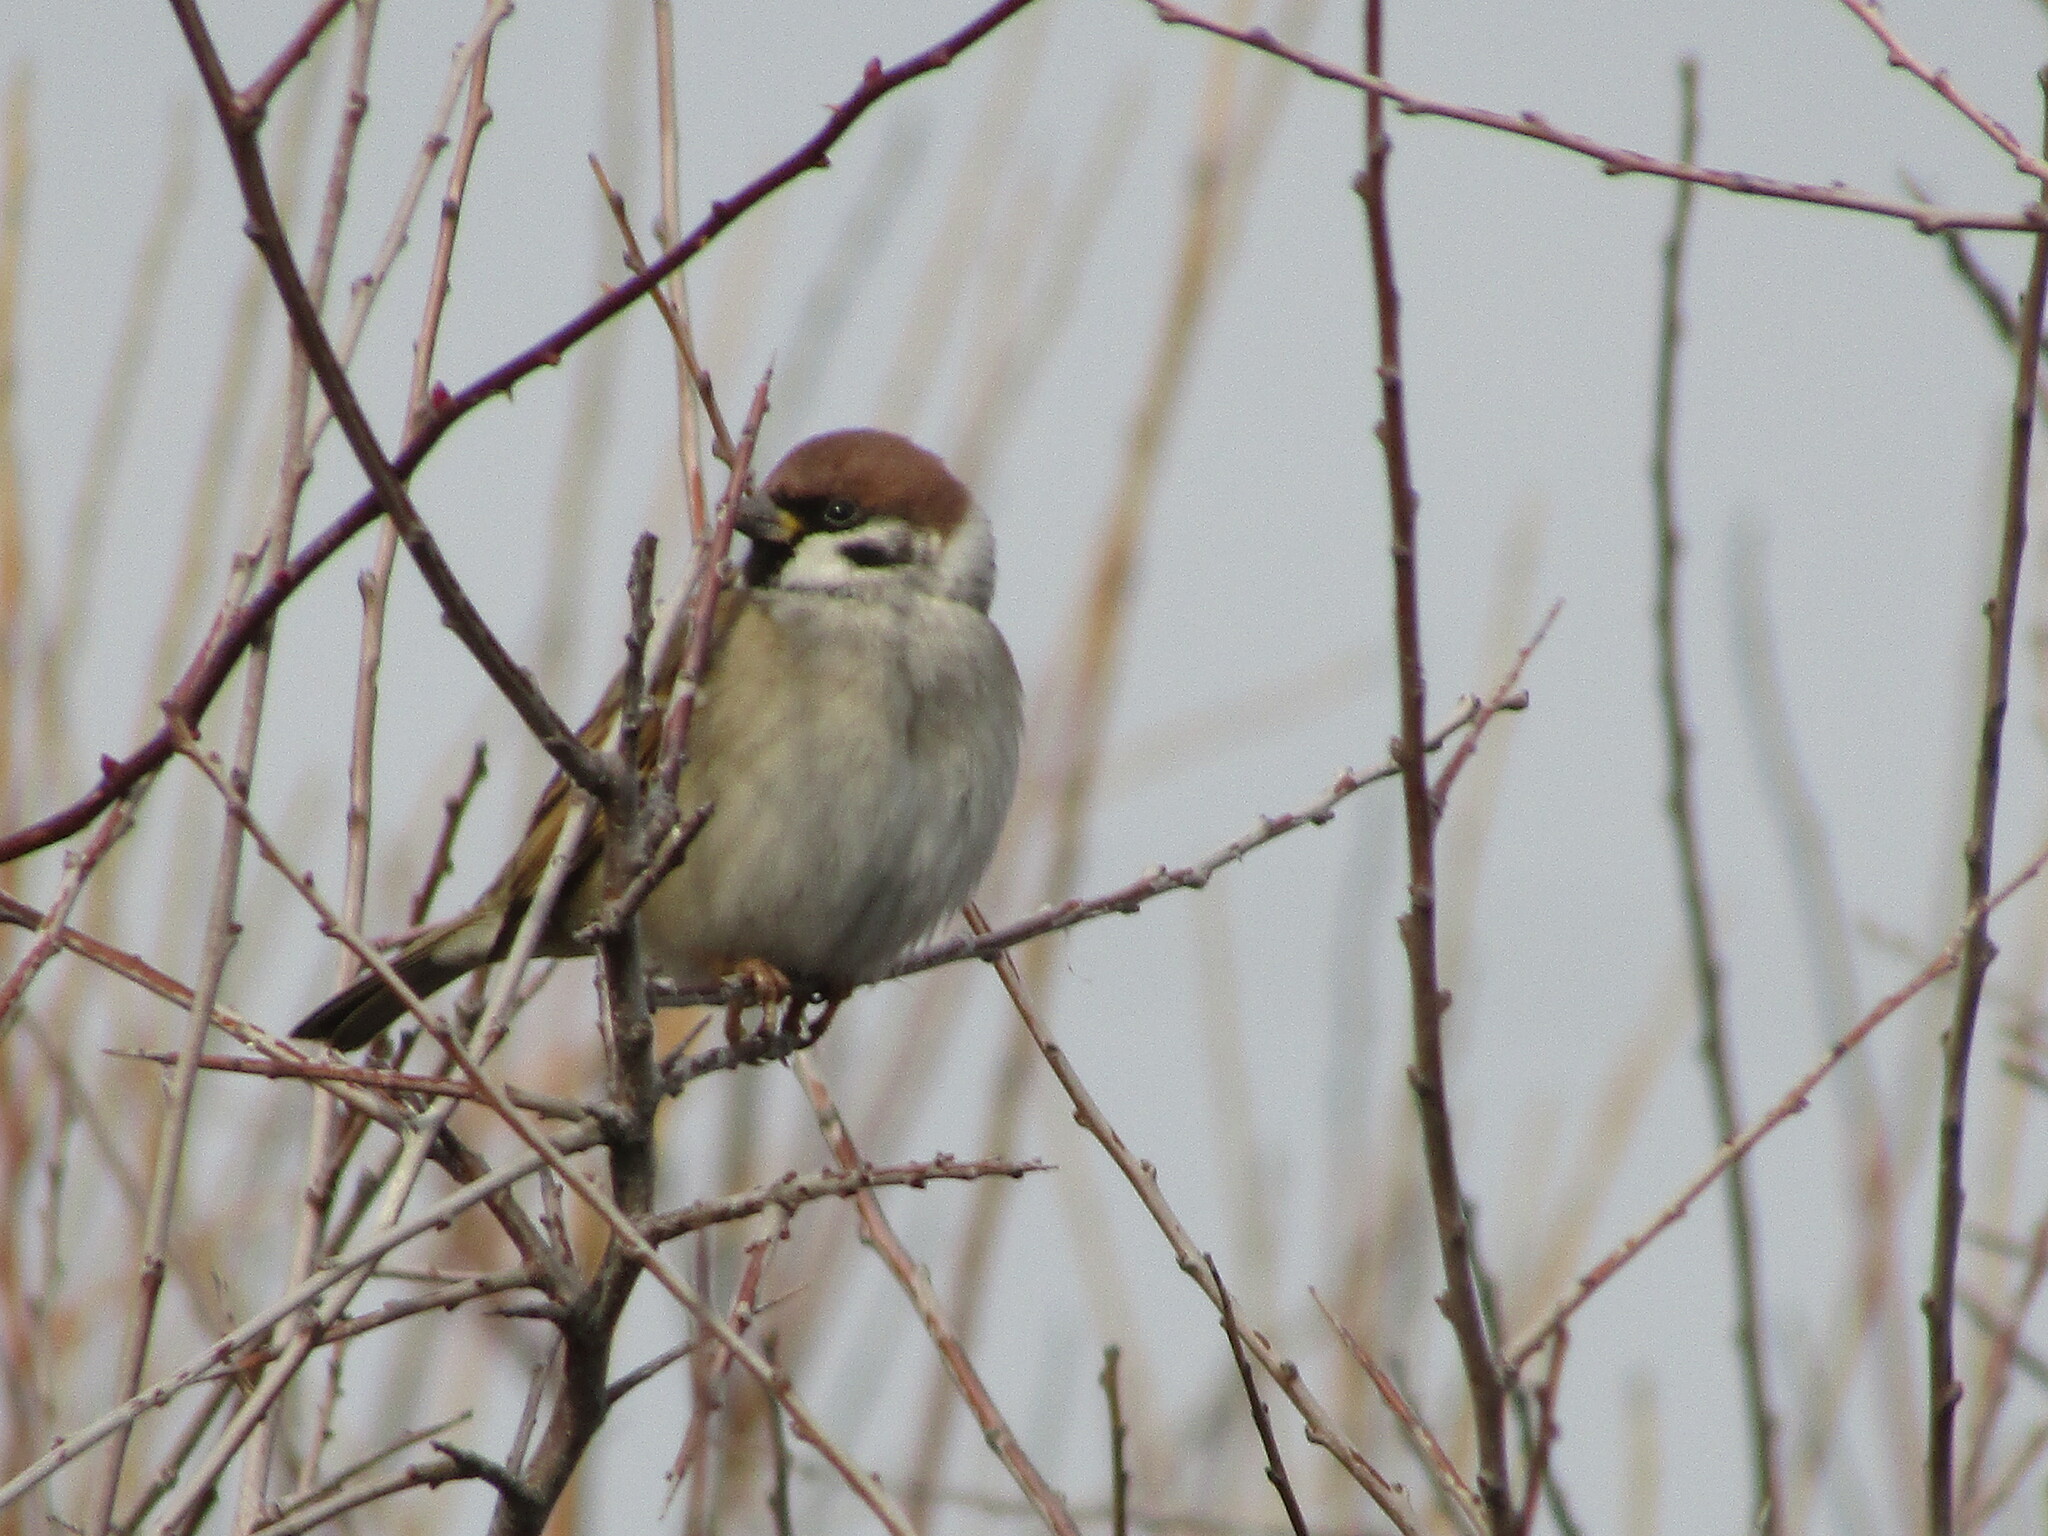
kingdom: Animalia
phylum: Chordata
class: Aves
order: Passeriformes
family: Passeridae
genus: Passer
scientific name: Passer montanus
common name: Eurasian tree sparrow
